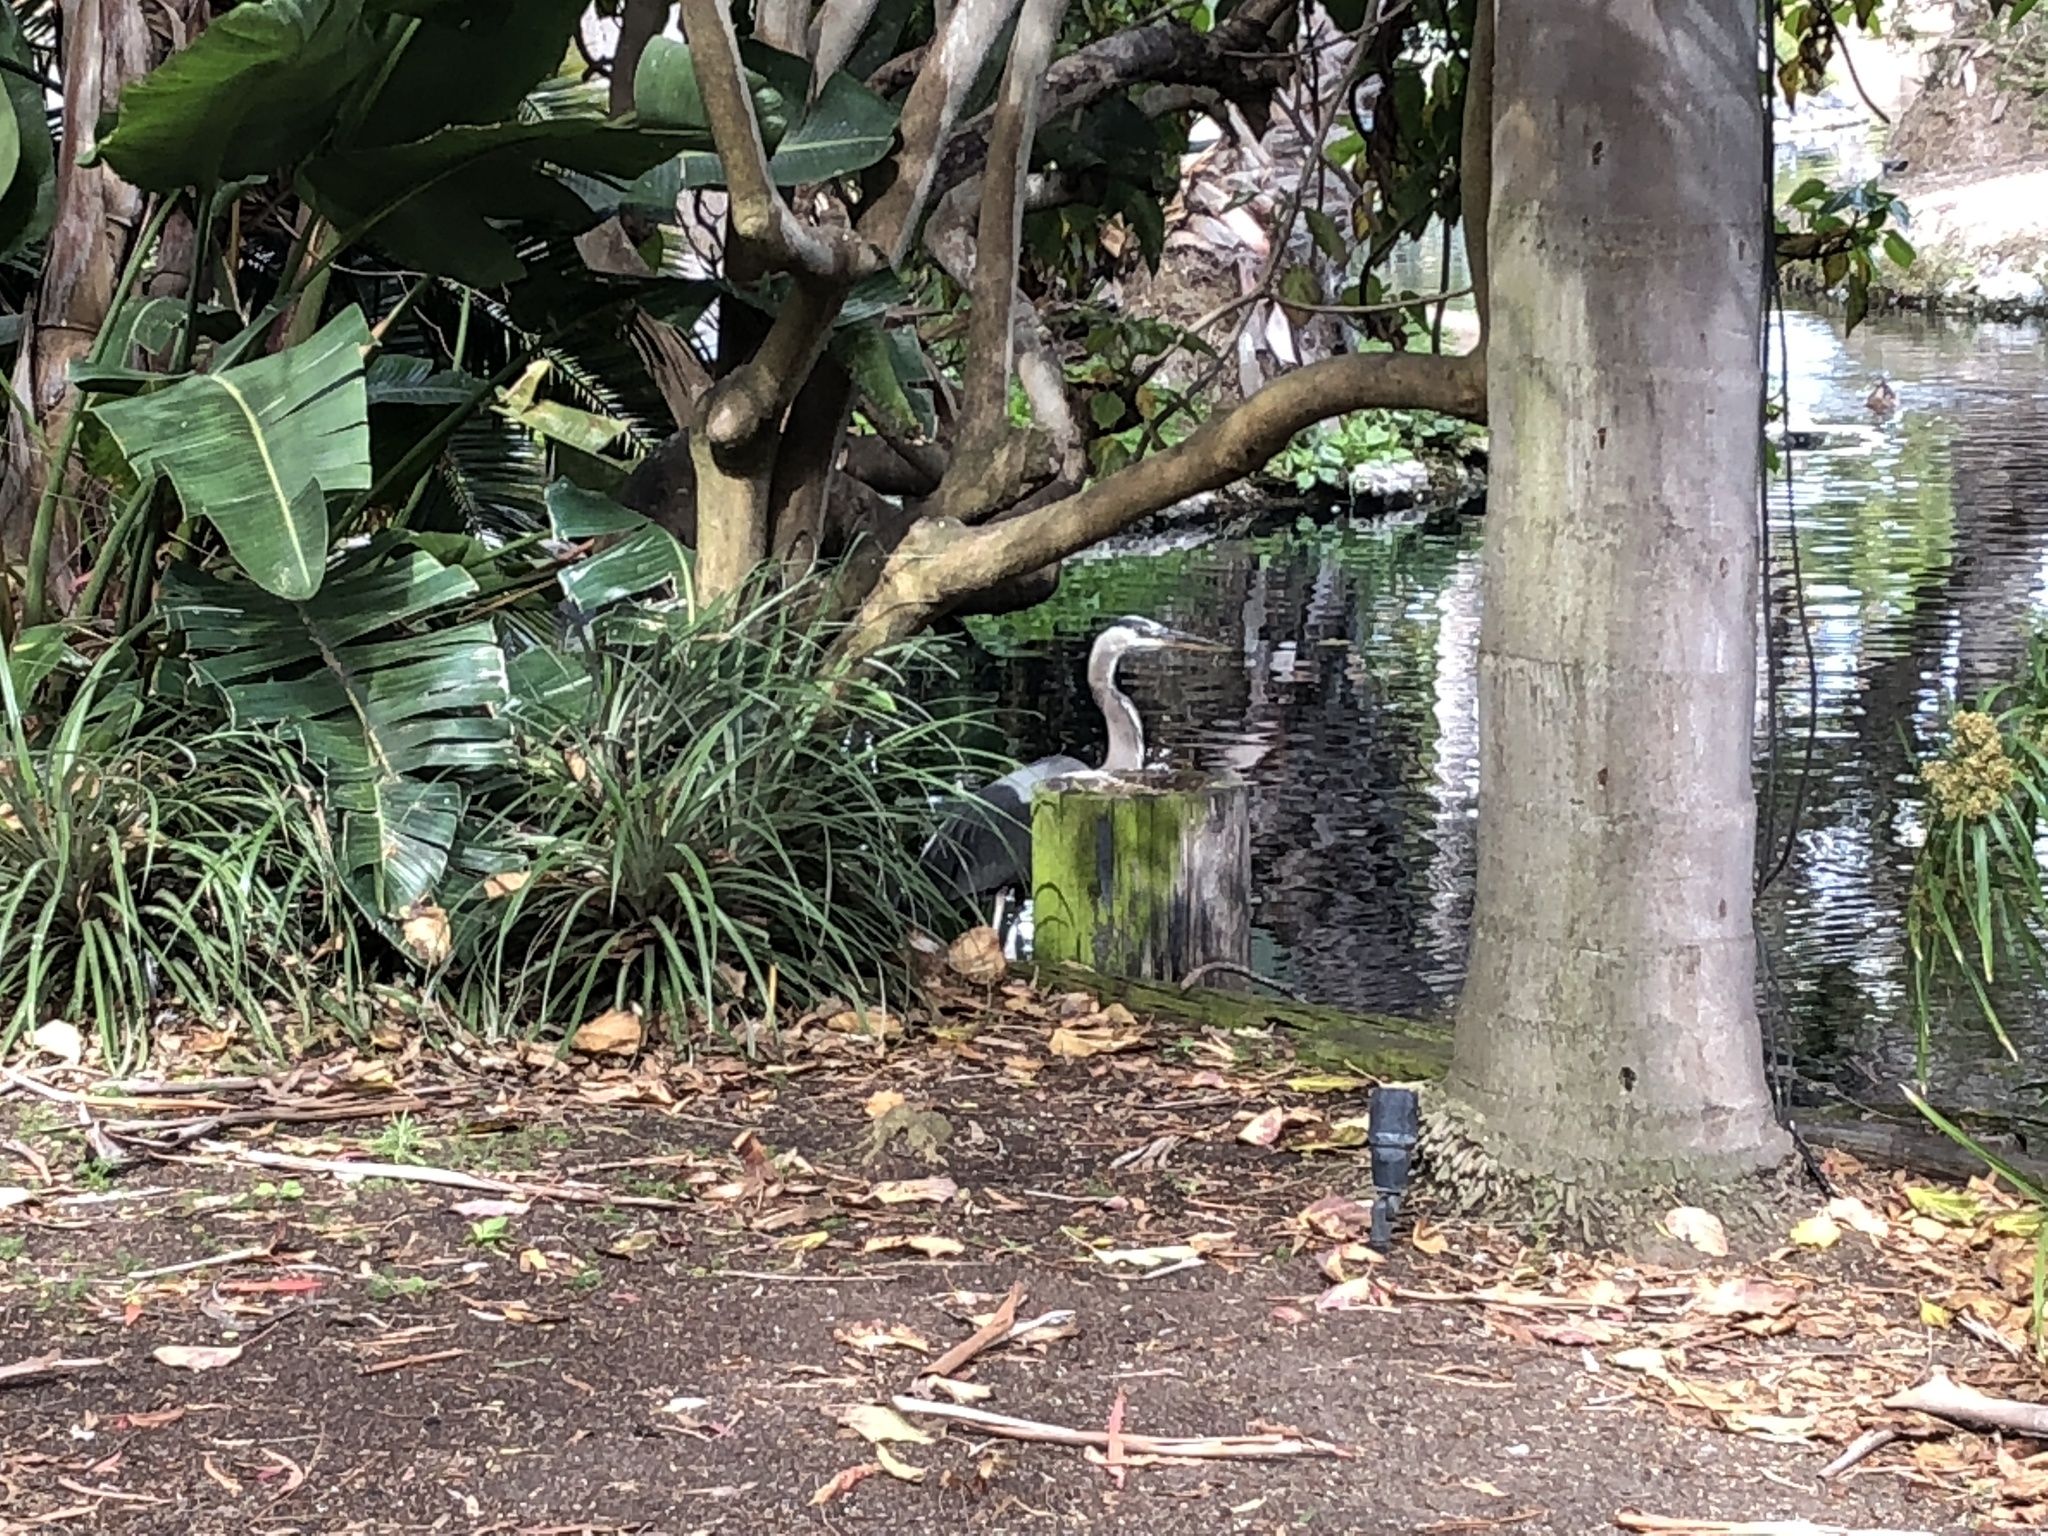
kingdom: Animalia
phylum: Chordata
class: Aves
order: Pelecaniformes
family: Ardeidae
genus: Ardea
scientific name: Ardea herodias
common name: Great blue heron
